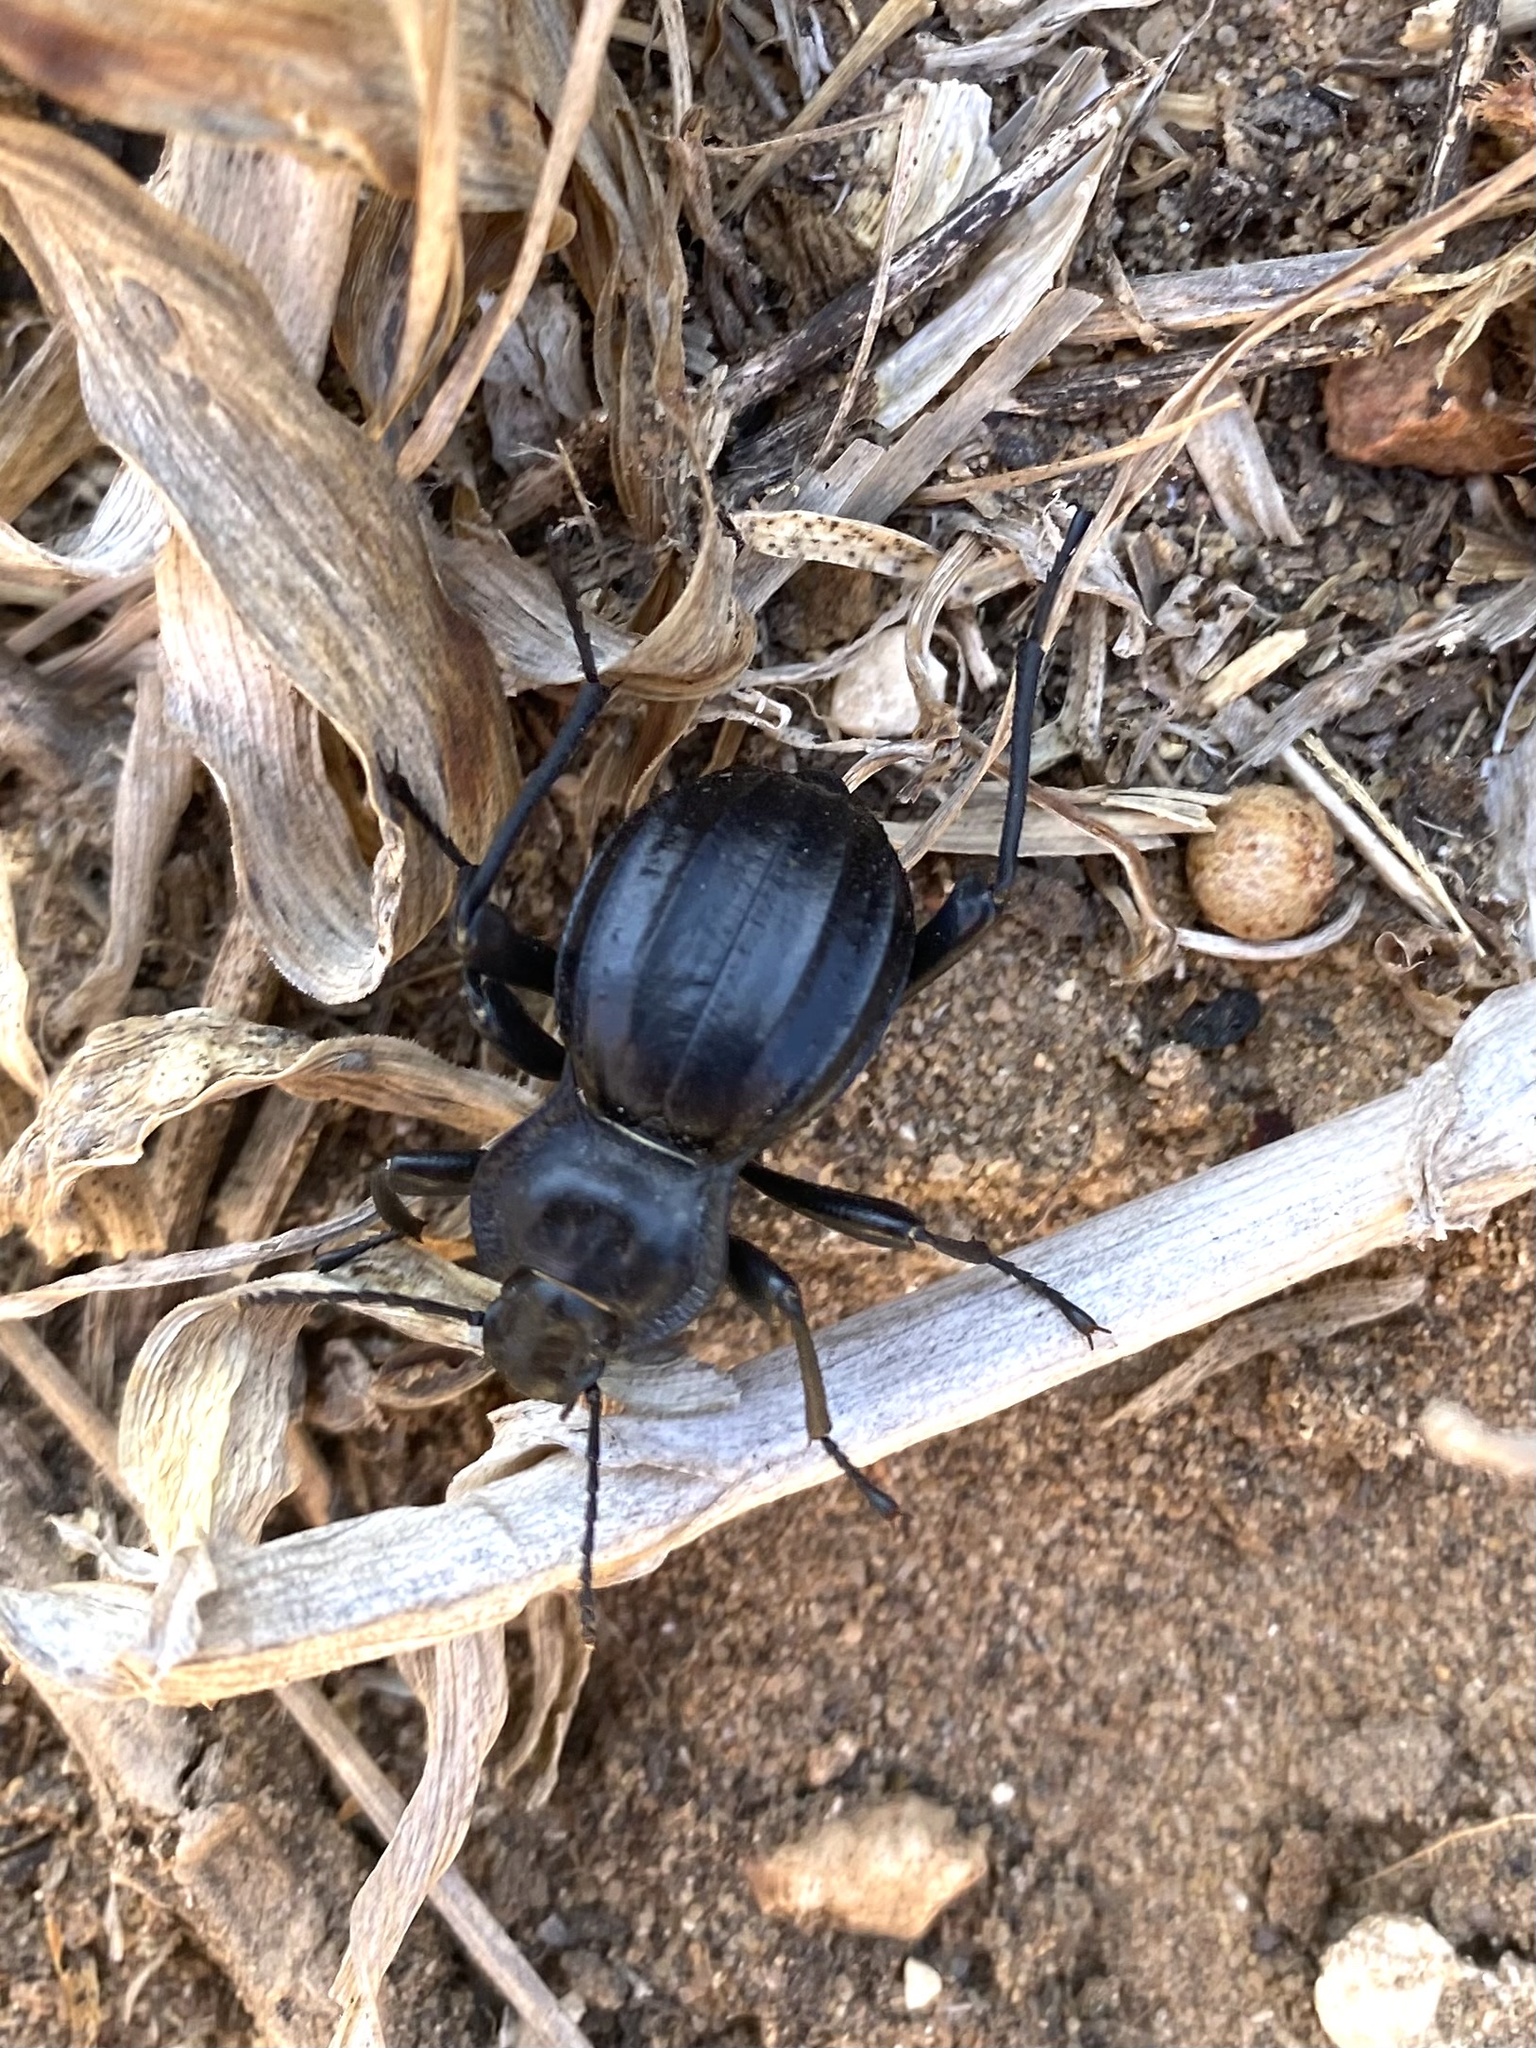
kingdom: Animalia
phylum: Arthropoda
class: Insecta
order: Coleoptera
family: Tenebrionidae
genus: Akis
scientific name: Akis granulifera
